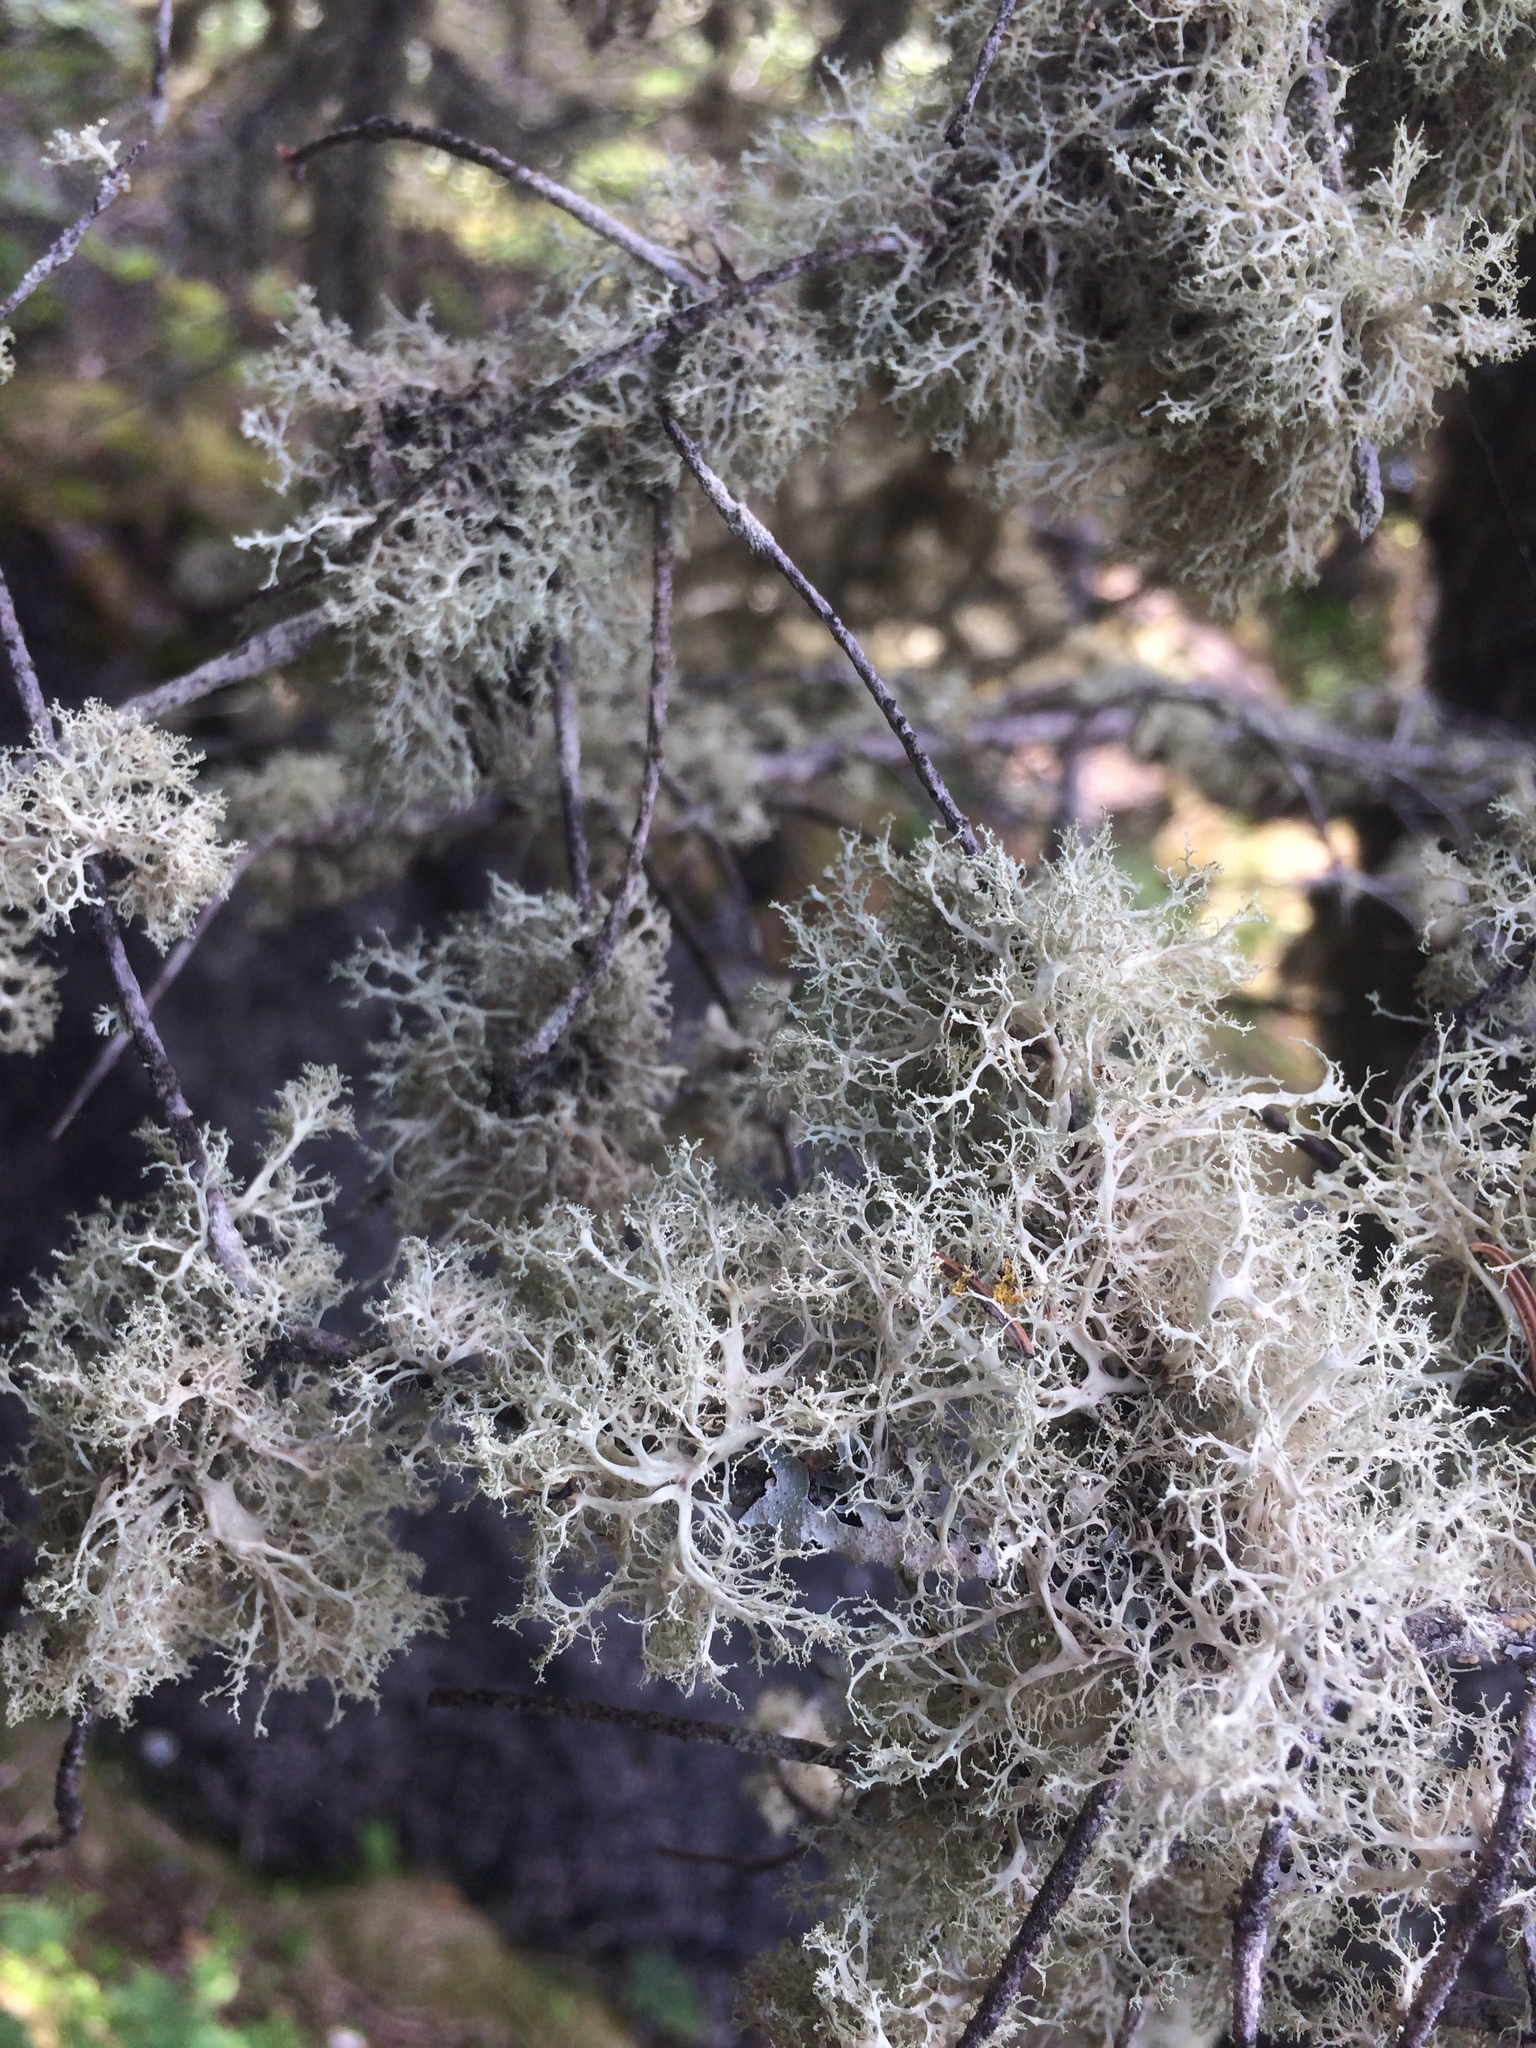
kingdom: Fungi
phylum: Ascomycota
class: Lecanoromycetes
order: Lecanorales
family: Ramalinaceae
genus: Ramalina
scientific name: Ramalina intermedia
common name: Rock bushy lichen
